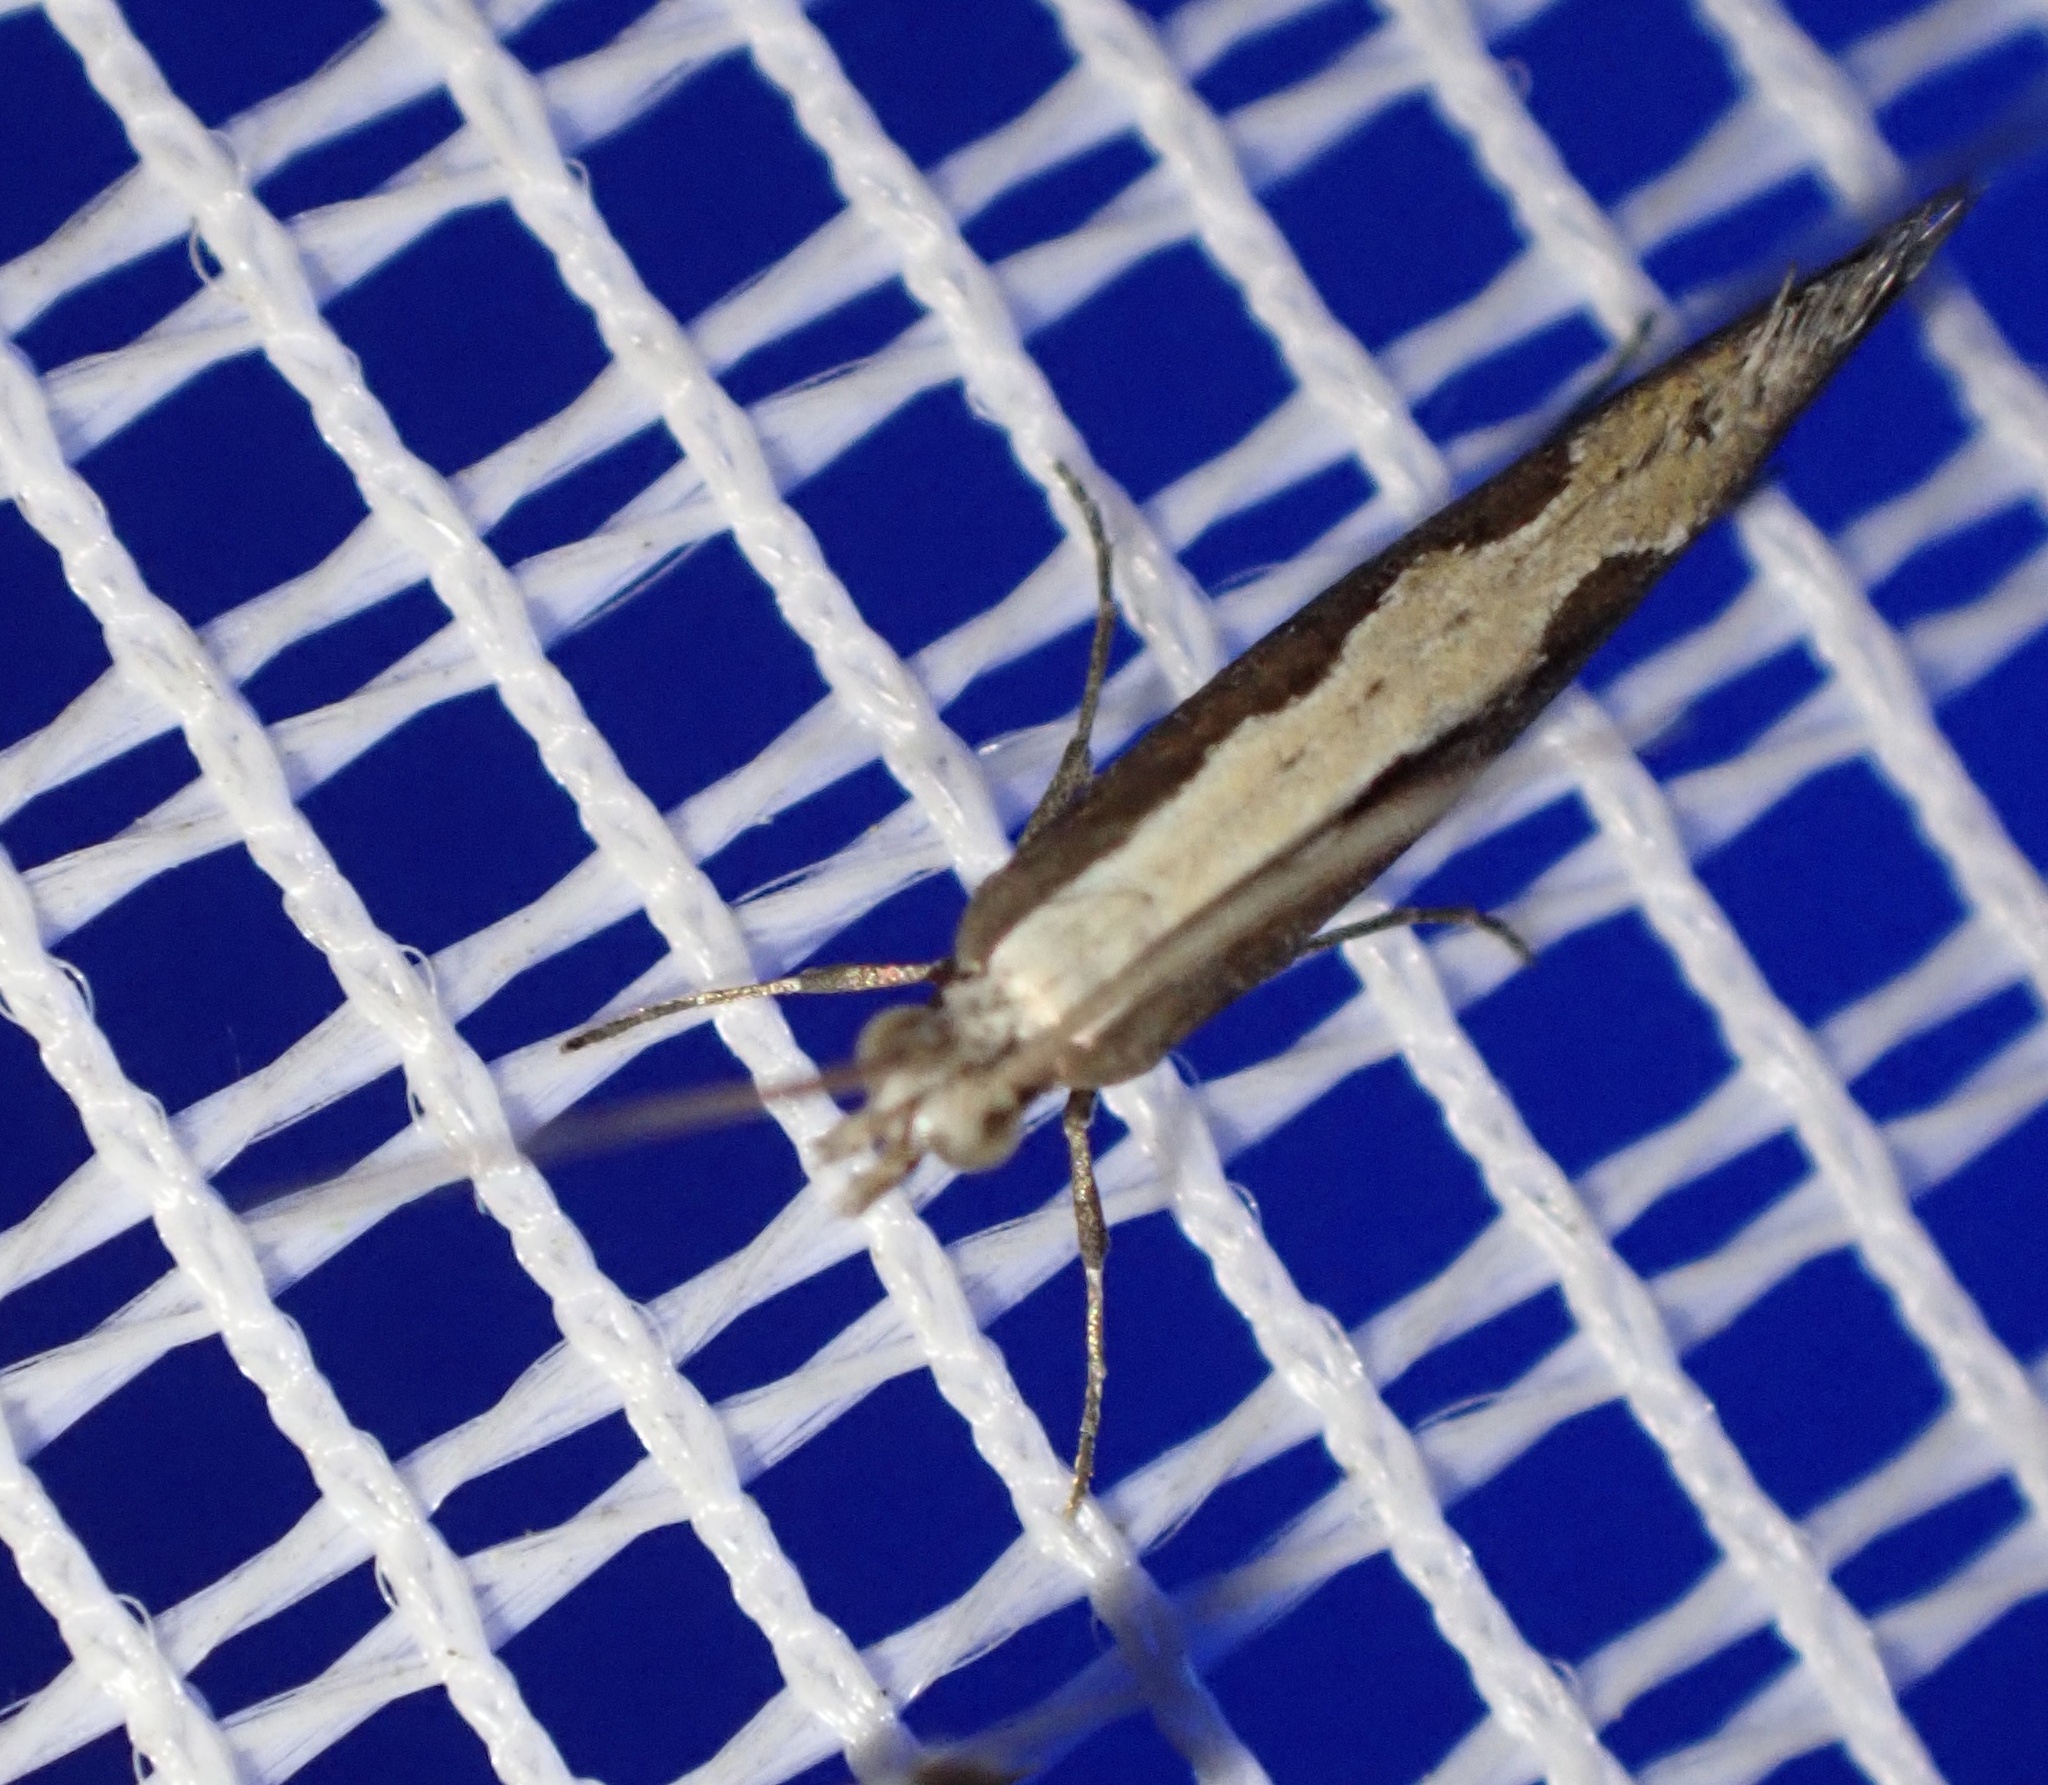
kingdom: Animalia
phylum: Arthropoda
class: Insecta
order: Lepidoptera
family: Plutellidae
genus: Plutella
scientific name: Plutella xylostella
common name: Diamond-back moth
